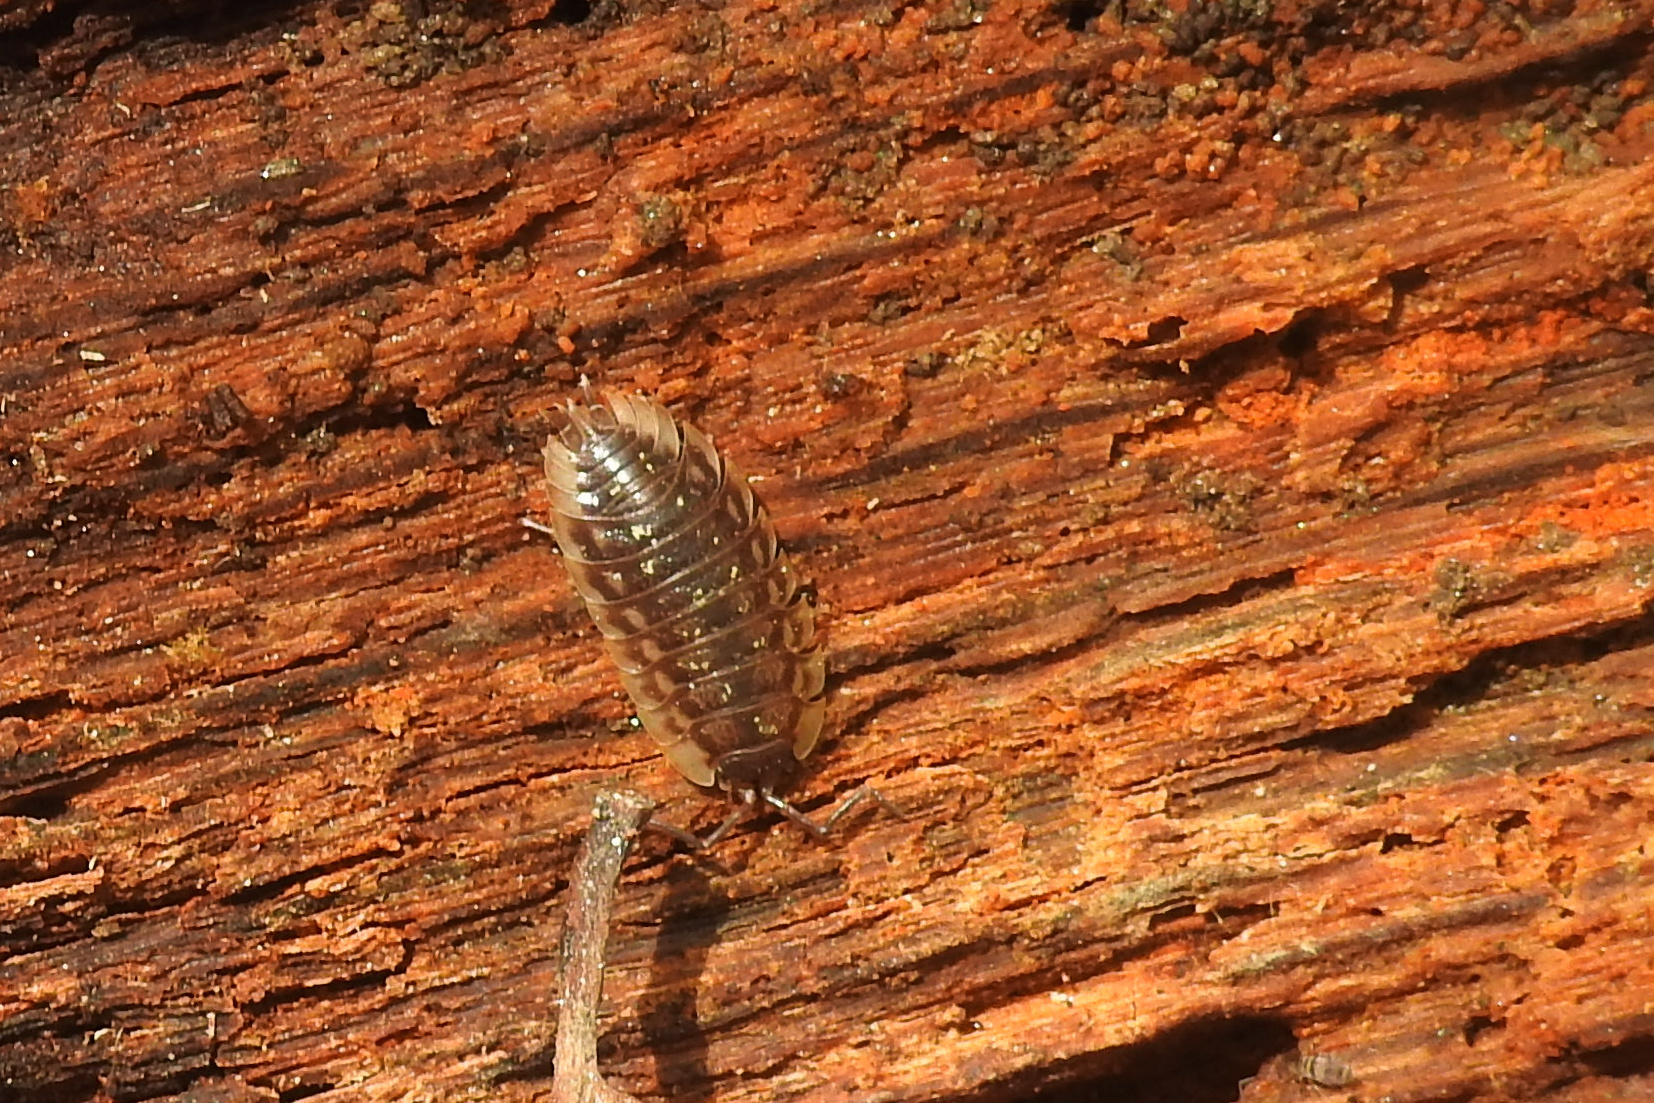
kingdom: Animalia
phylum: Arthropoda
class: Malacostraca
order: Isopoda
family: Oniscidae
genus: Oniscus
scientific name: Oniscus asellus
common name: Common shiny woodlouse
